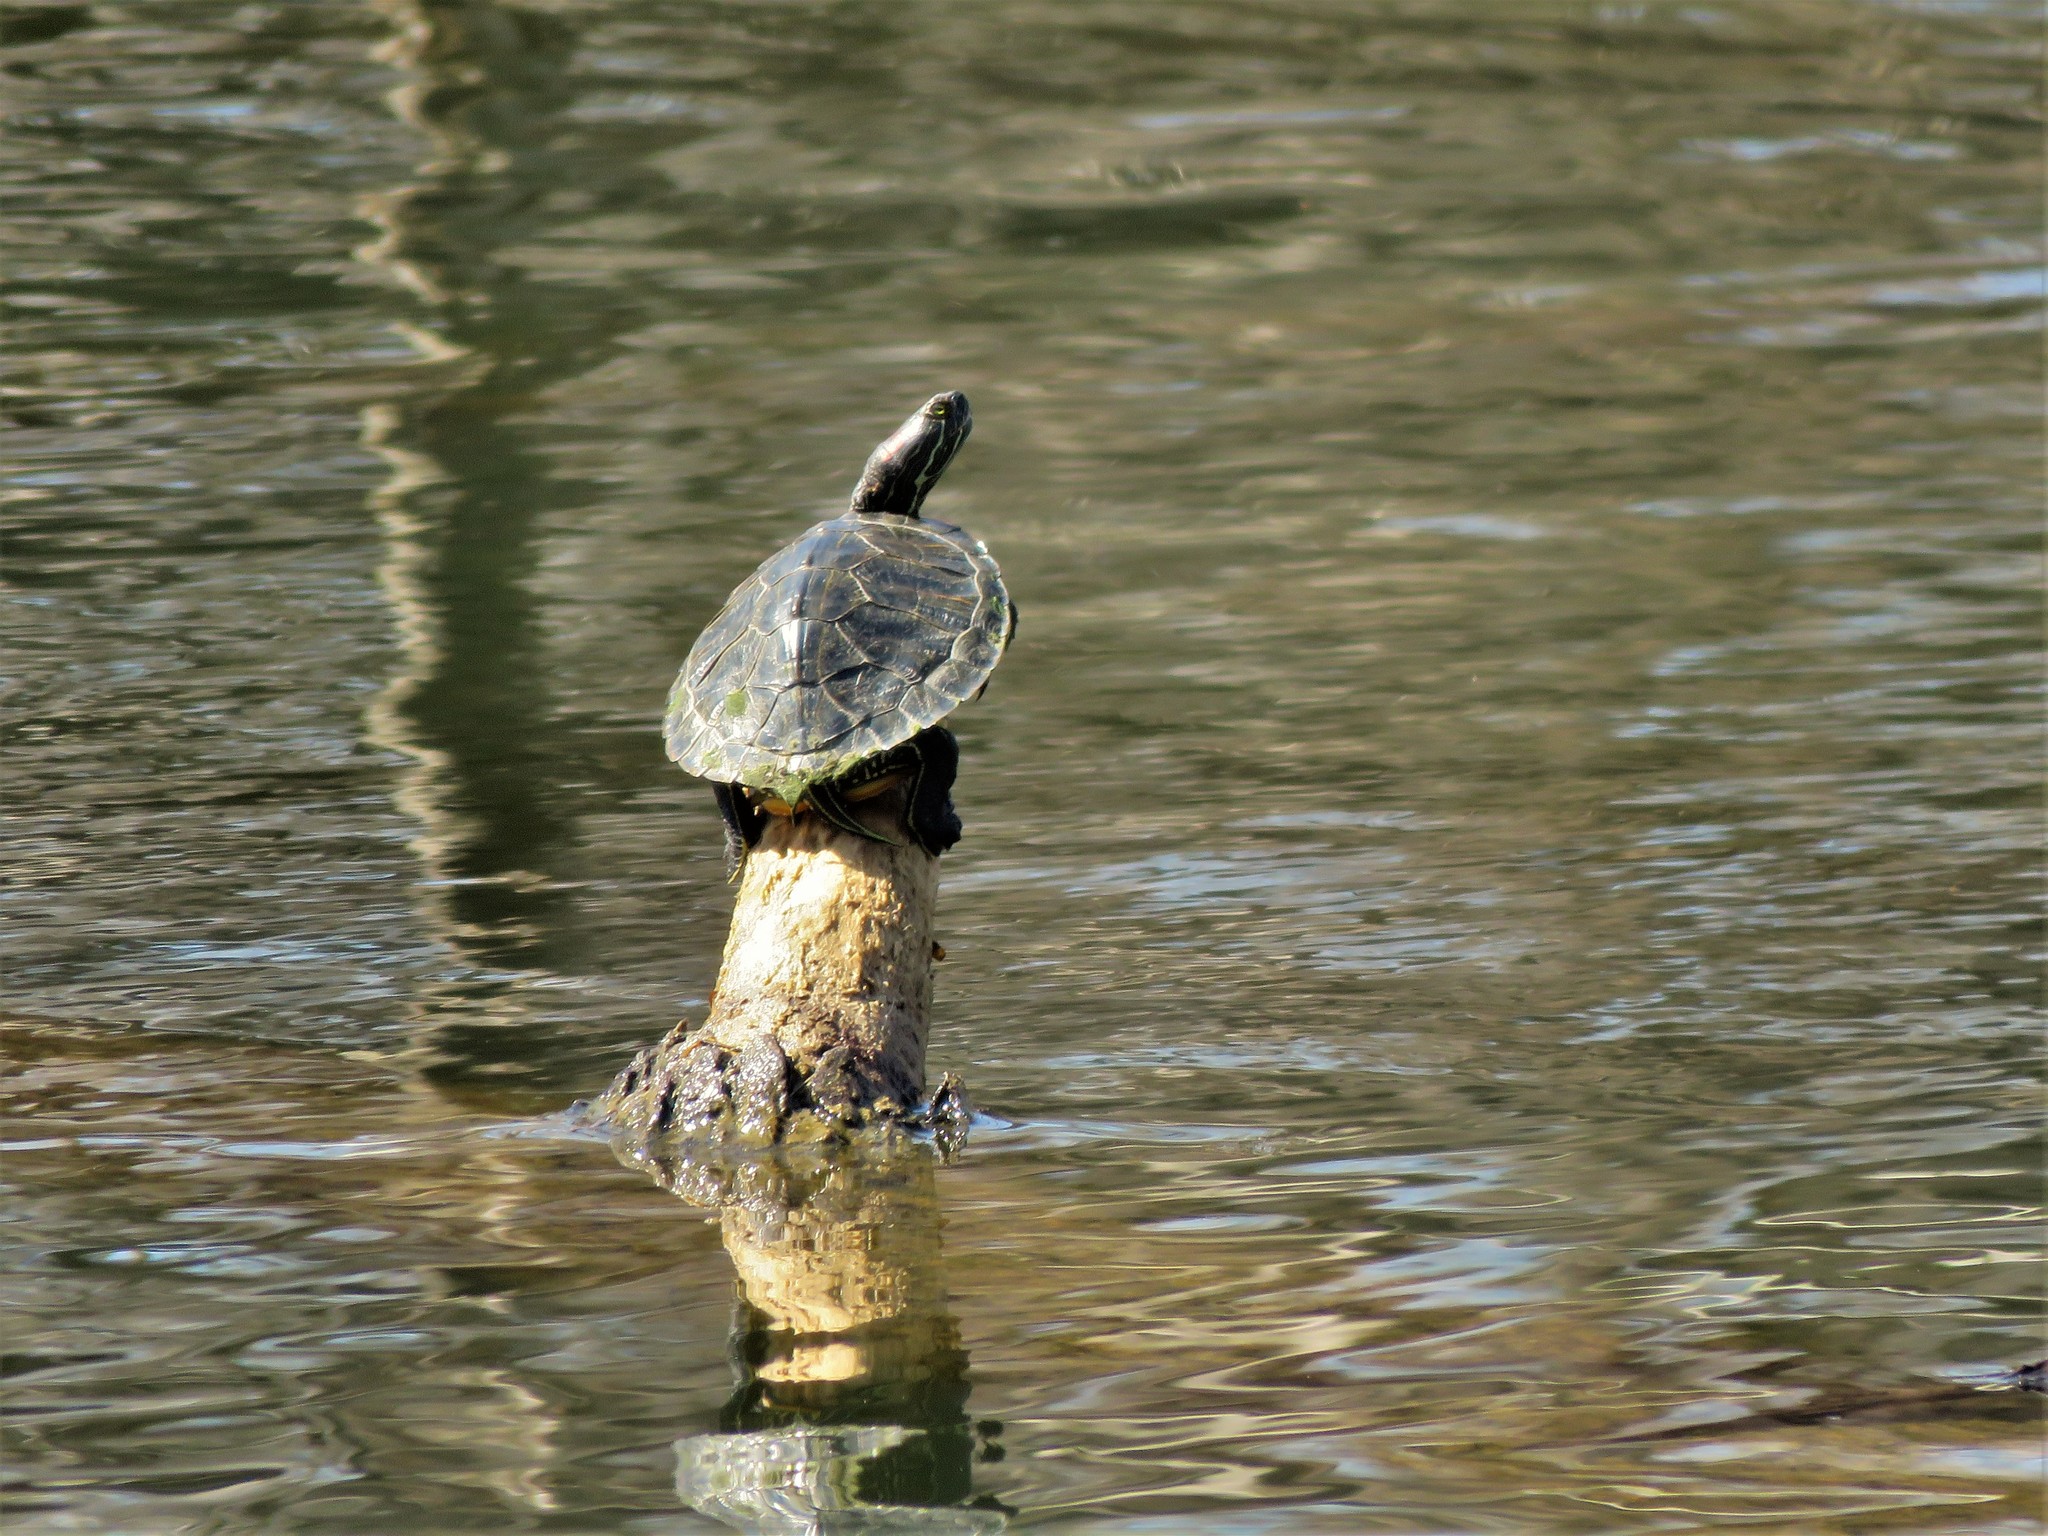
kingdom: Animalia
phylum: Chordata
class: Testudines
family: Emydidae
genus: Trachemys
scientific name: Trachemys scripta
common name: Slider
